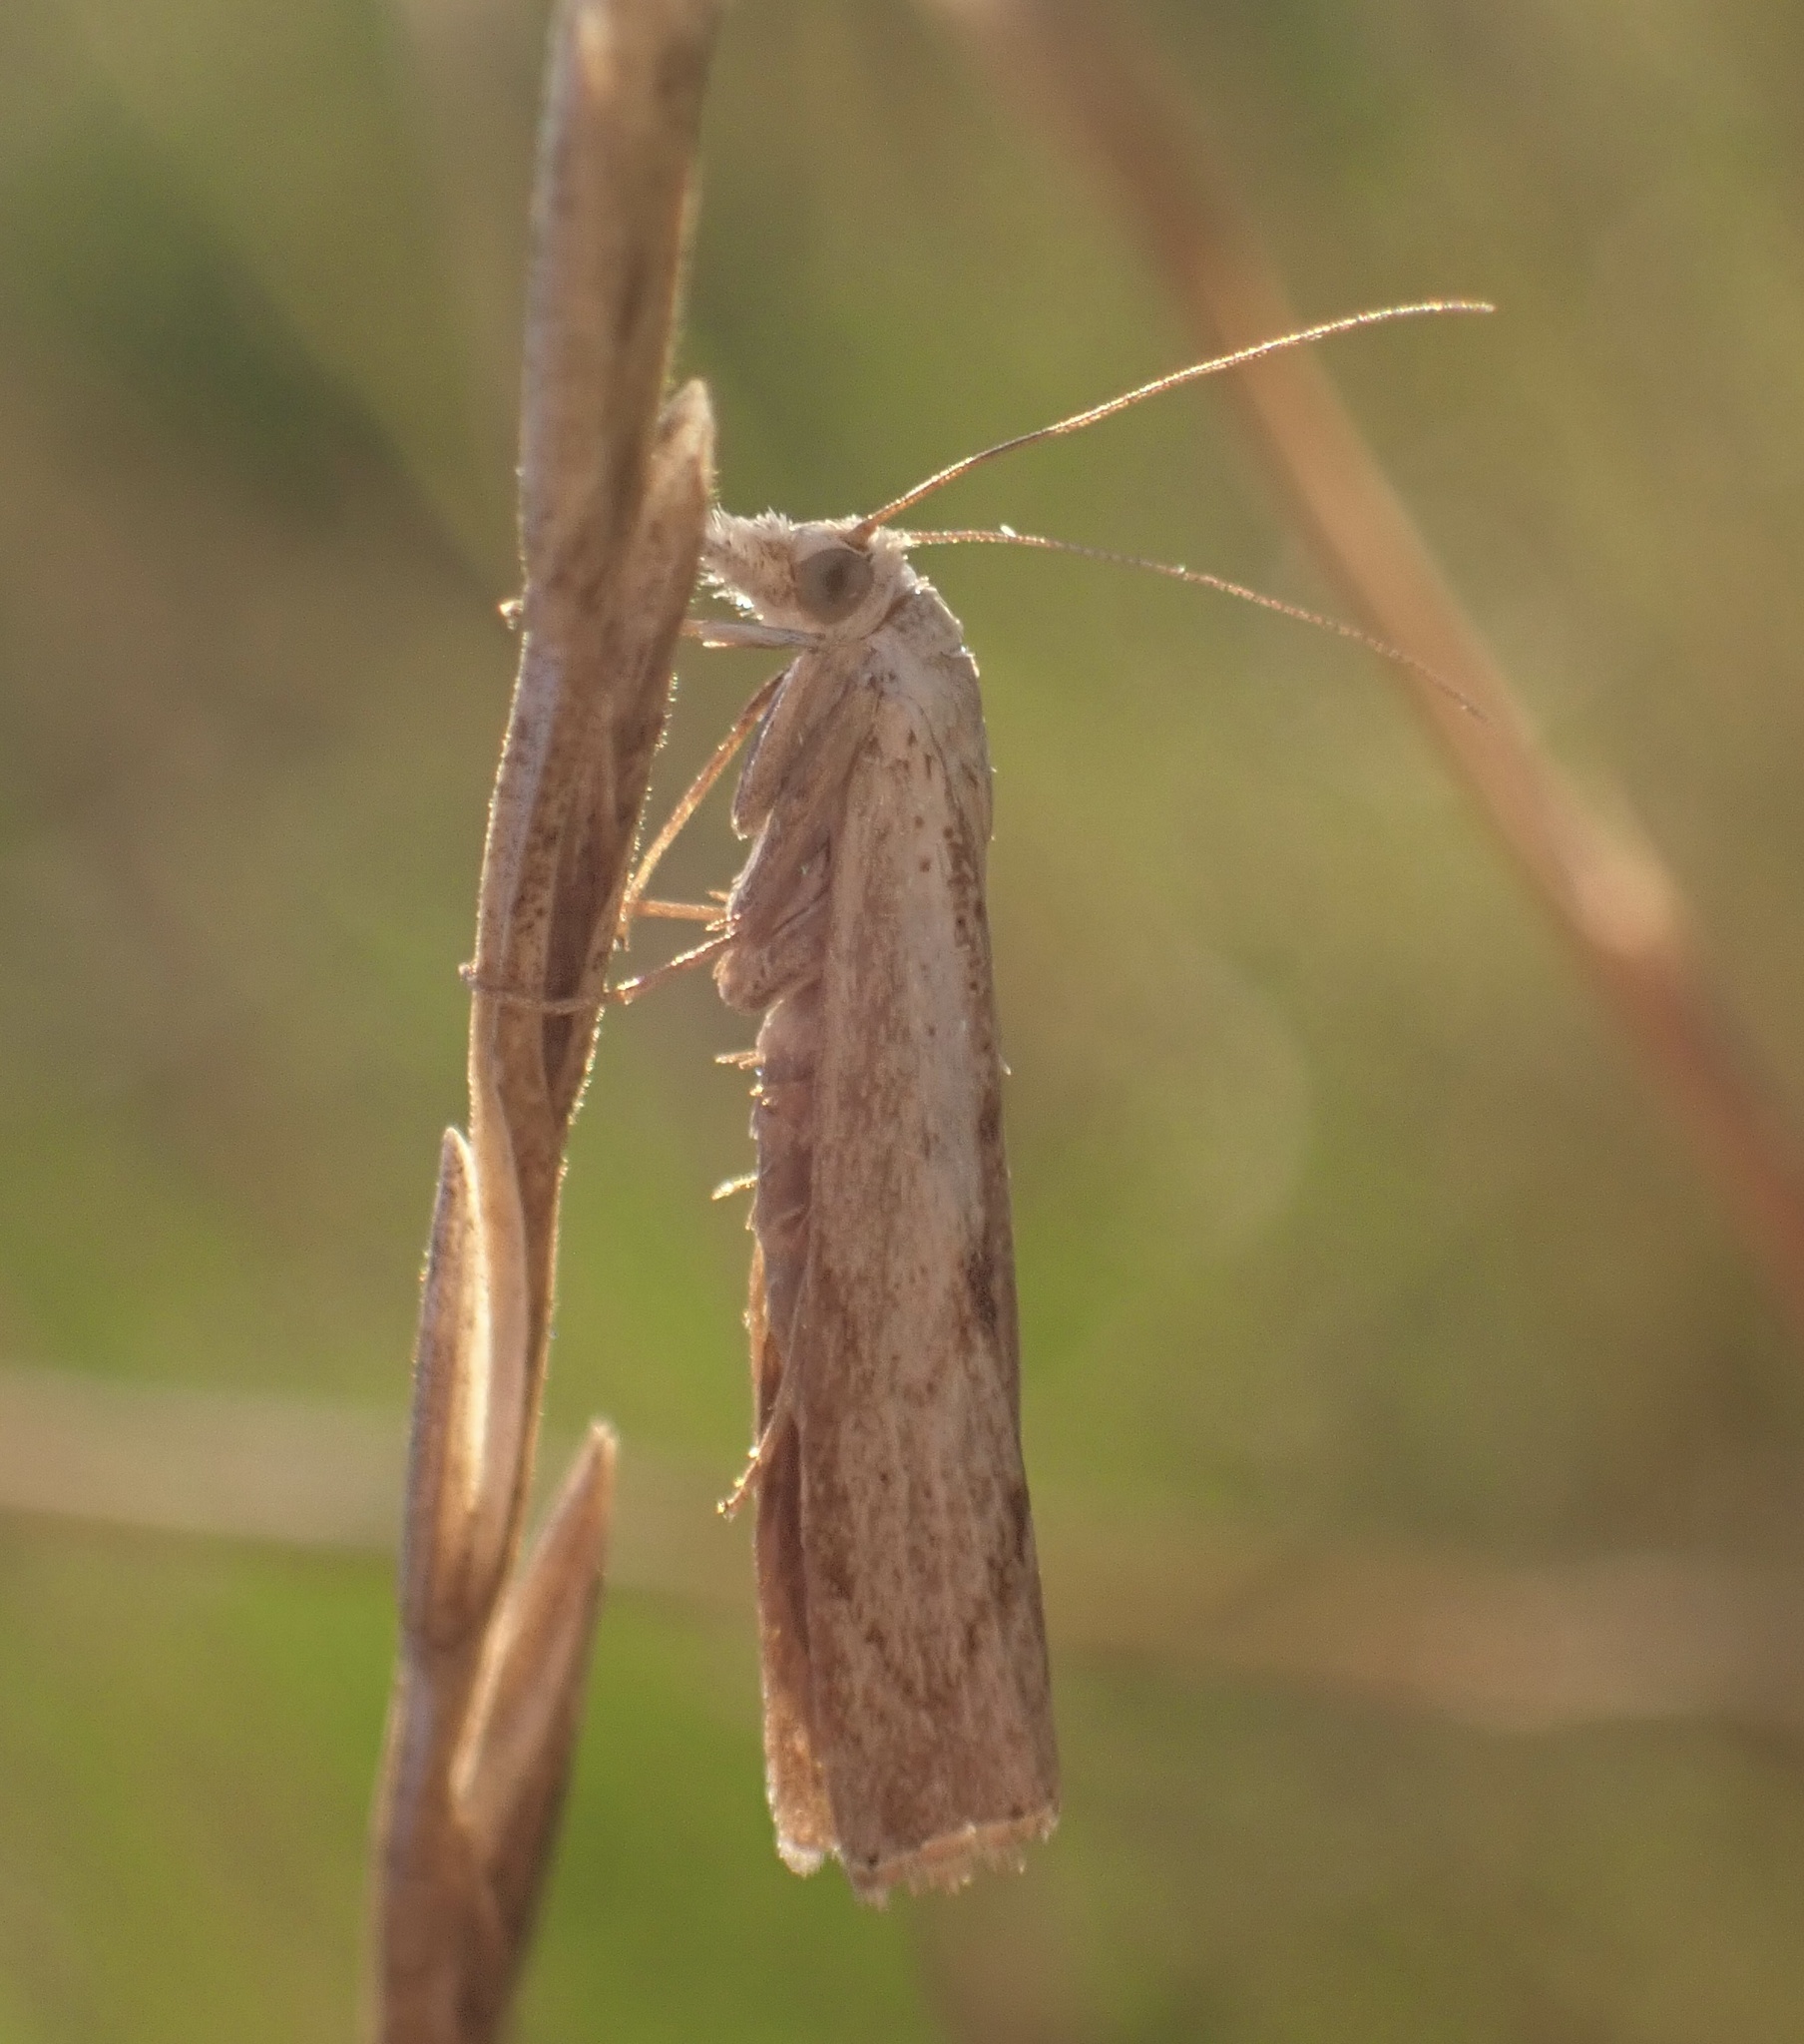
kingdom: Animalia
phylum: Arthropoda
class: Insecta
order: Lepidoptera
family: Crambidae
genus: Agriphila
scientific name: Agriphila geniculea
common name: Elbow-stripe grass-veneer
